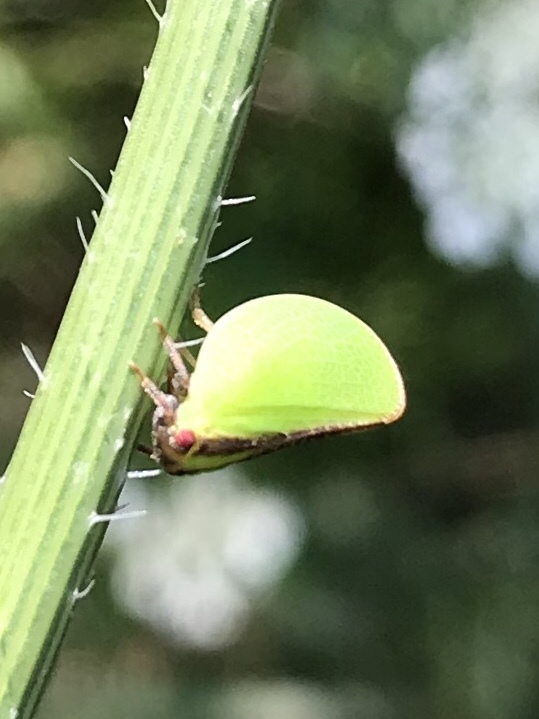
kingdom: Animalia
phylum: Arthropoda
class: Insecta
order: Hemiptera
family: Acanaloniidae
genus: Acanalonia
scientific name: Acanalonia bivittata
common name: Two-striped planthopper
